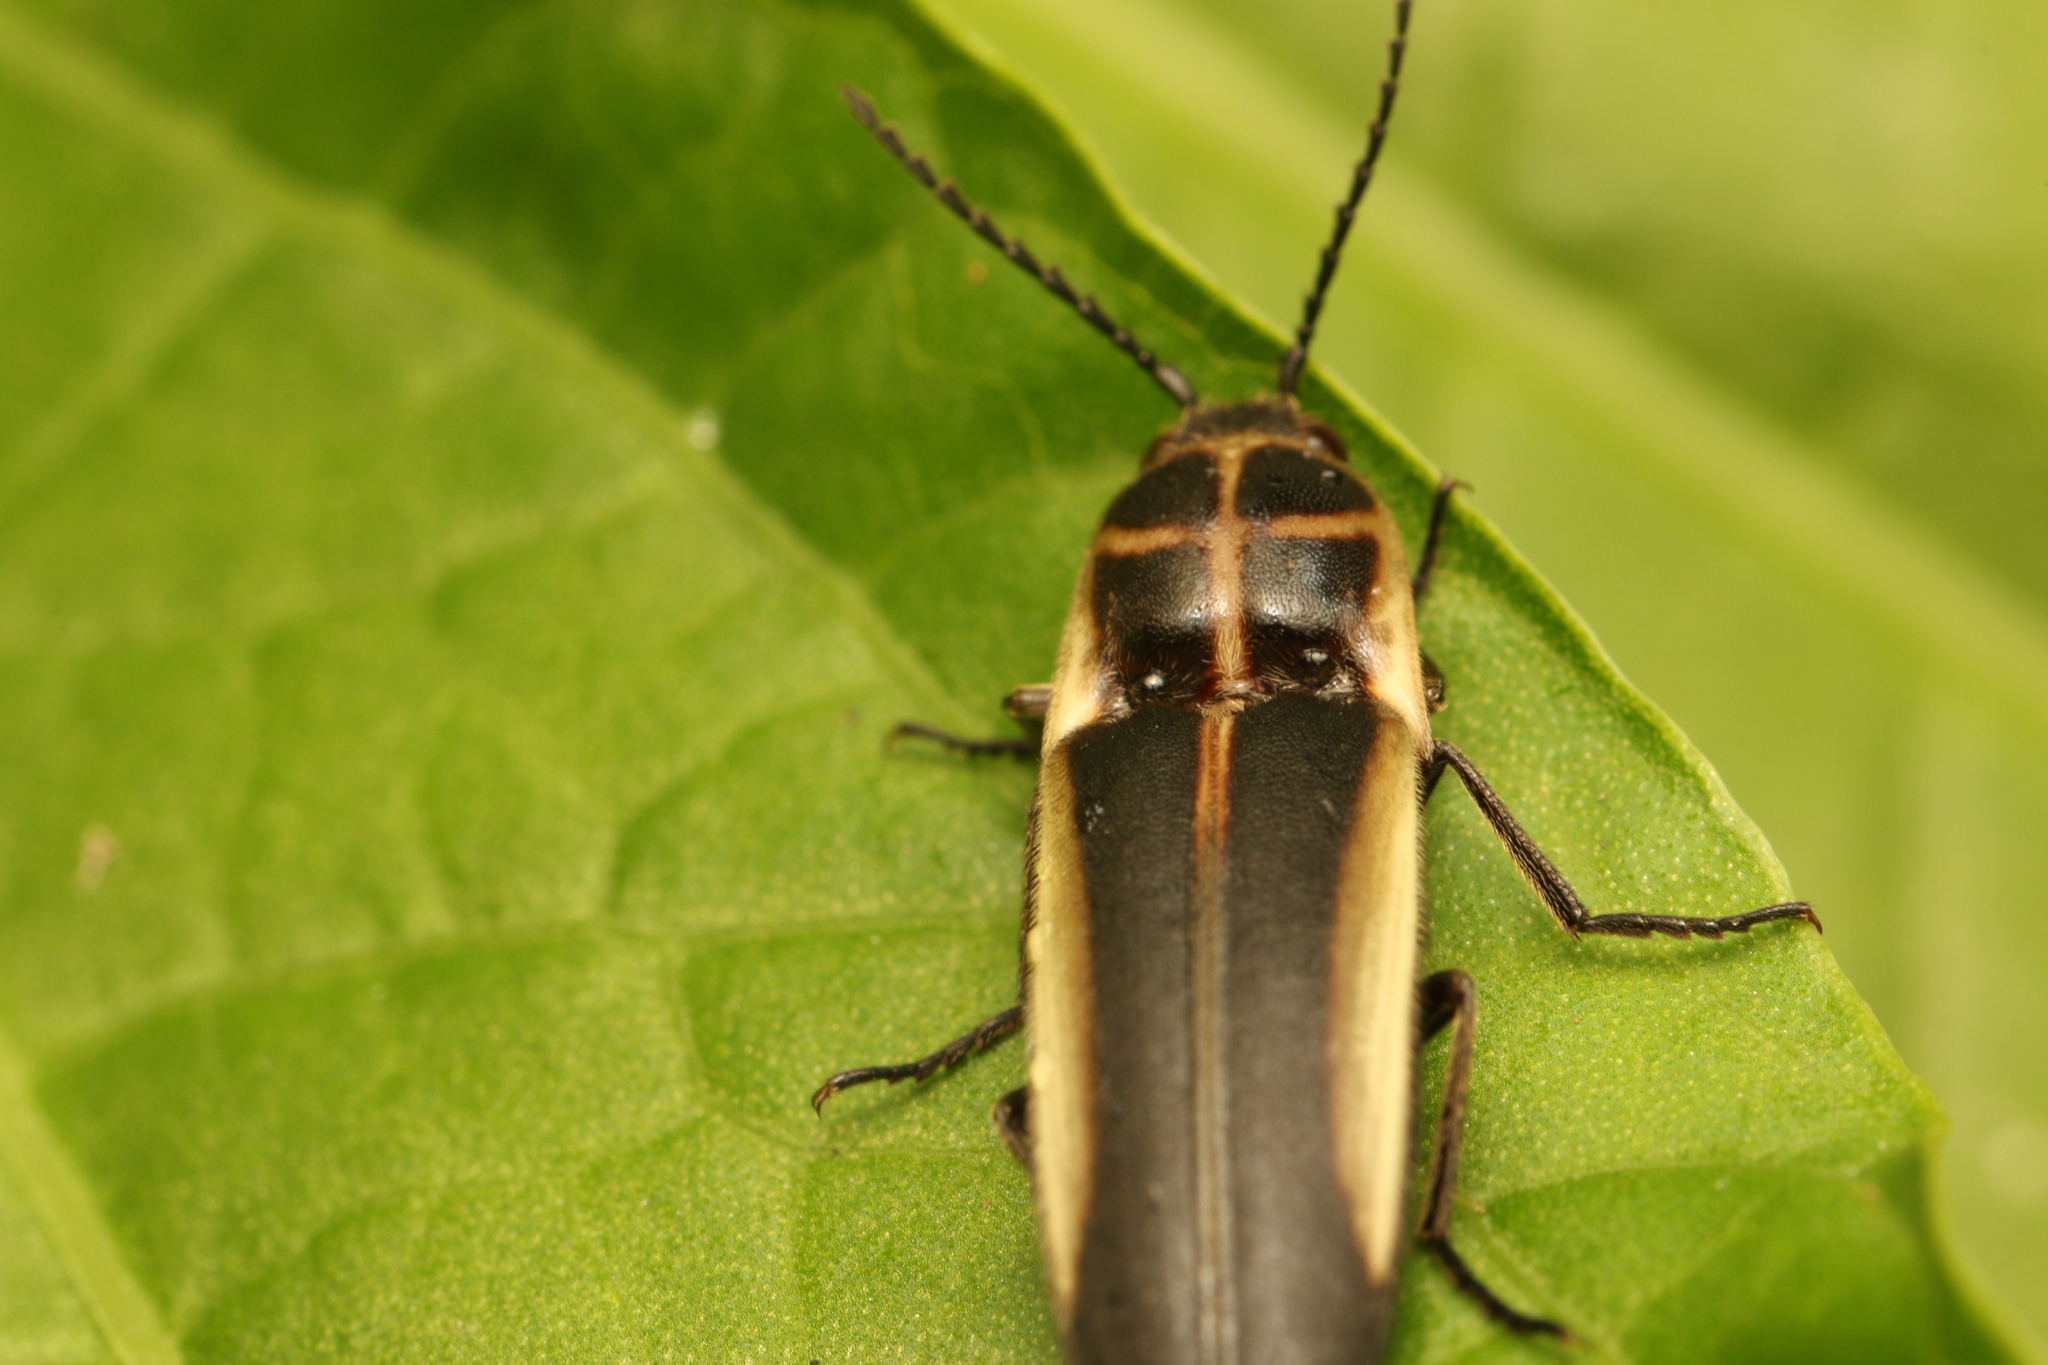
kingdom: Animalia
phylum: Arthropoda
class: Insecta
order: Coleoptera
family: Elateridae
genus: Probothrium
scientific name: Probothrium
